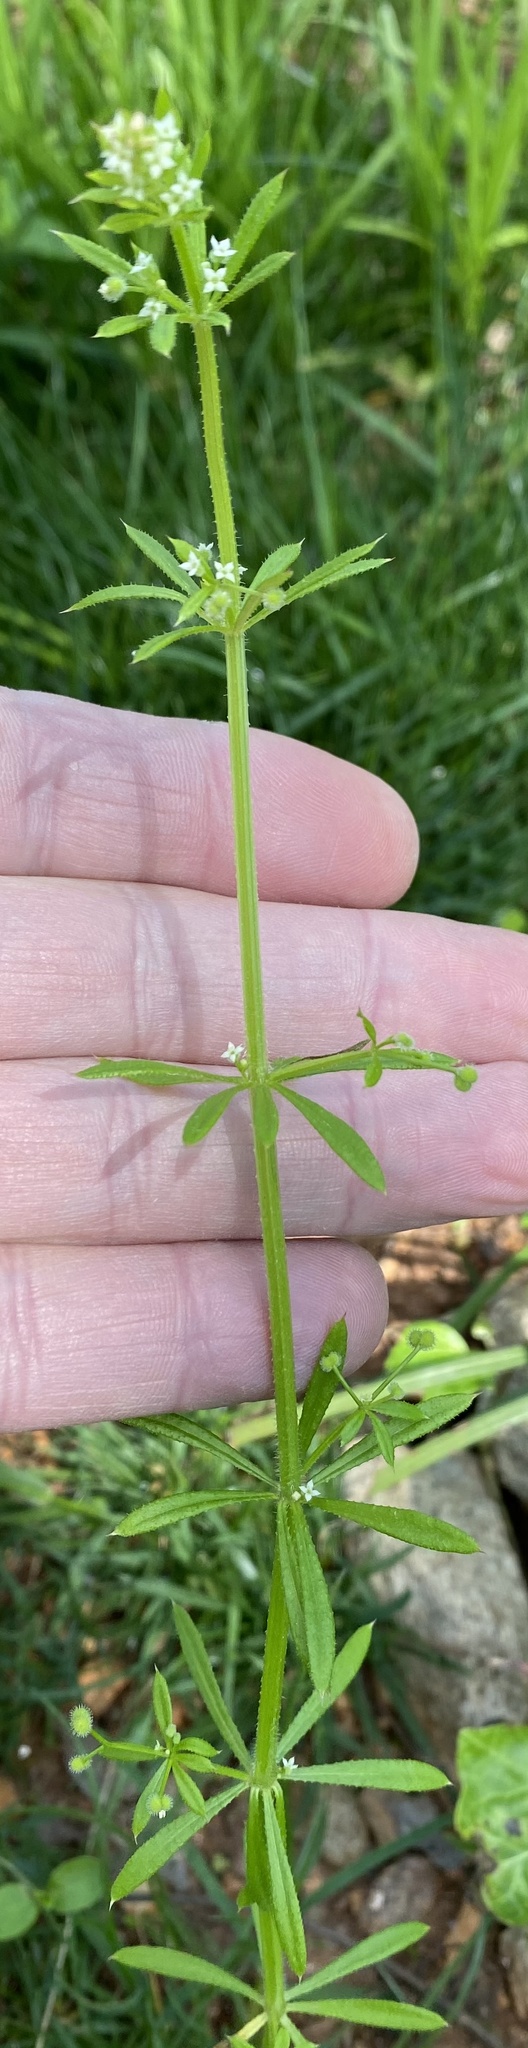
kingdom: Plantae
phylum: Tracheophyta
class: Magnoliopsida
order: Gentianales
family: Rubiaceae
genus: Galium
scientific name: Galium aparine
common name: Cleavers
